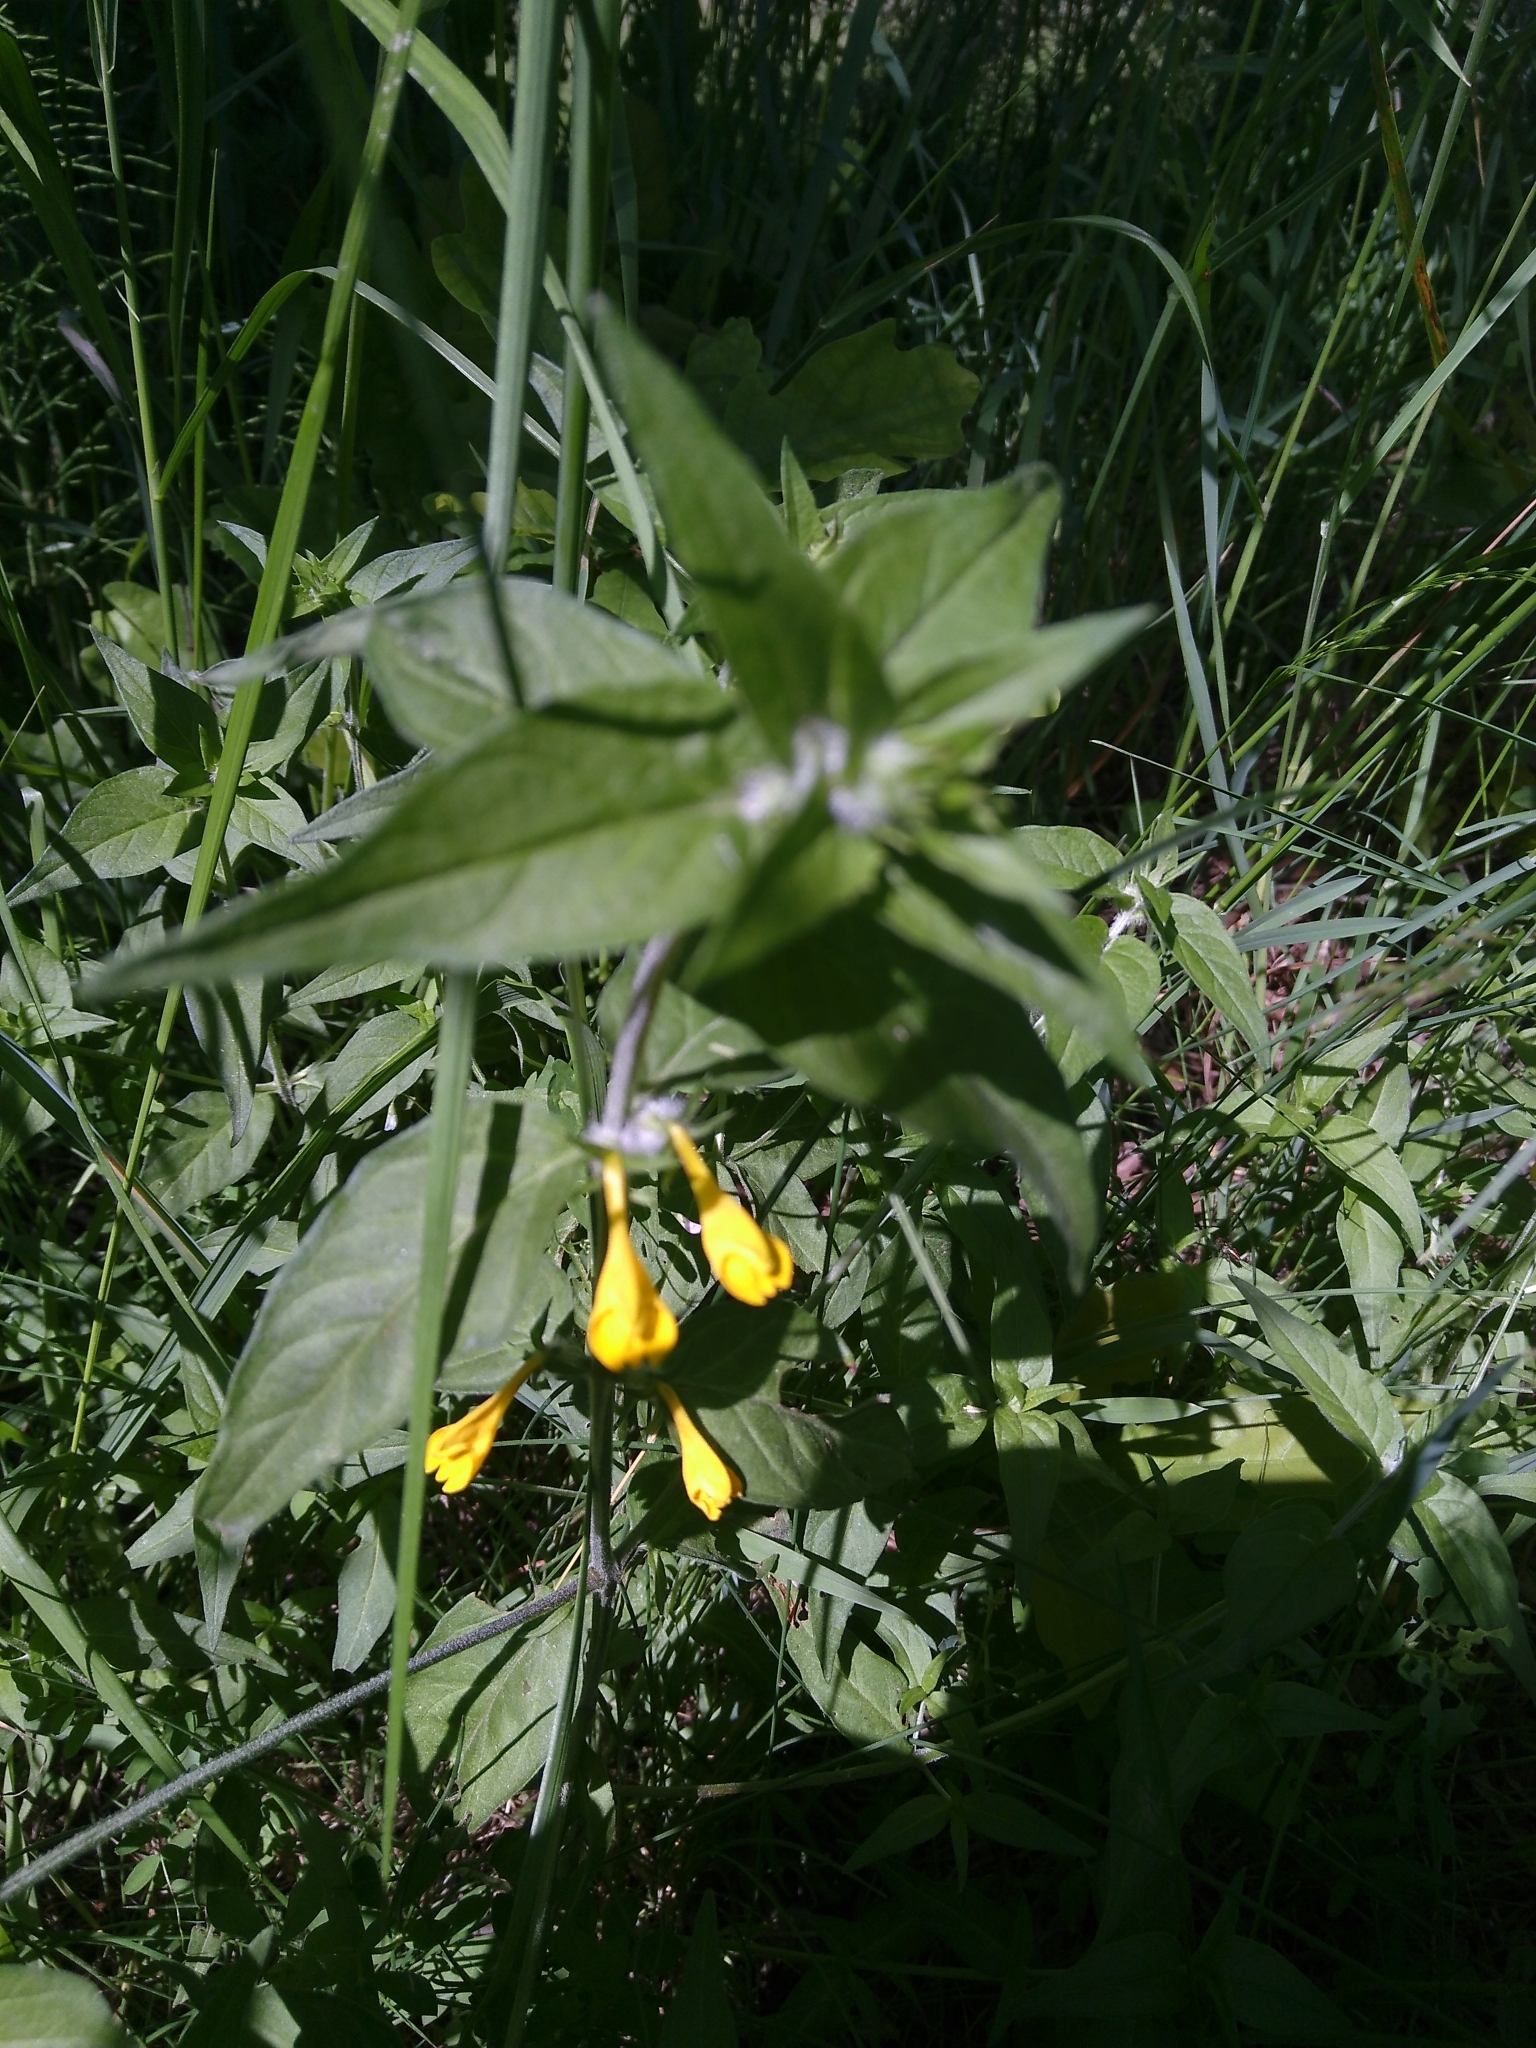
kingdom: Plantae
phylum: Tracheophyta
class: Magnoliopsida
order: Lamiales
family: Orobanchaceae
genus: Melampyrum
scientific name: Melampyrum nemorosum
